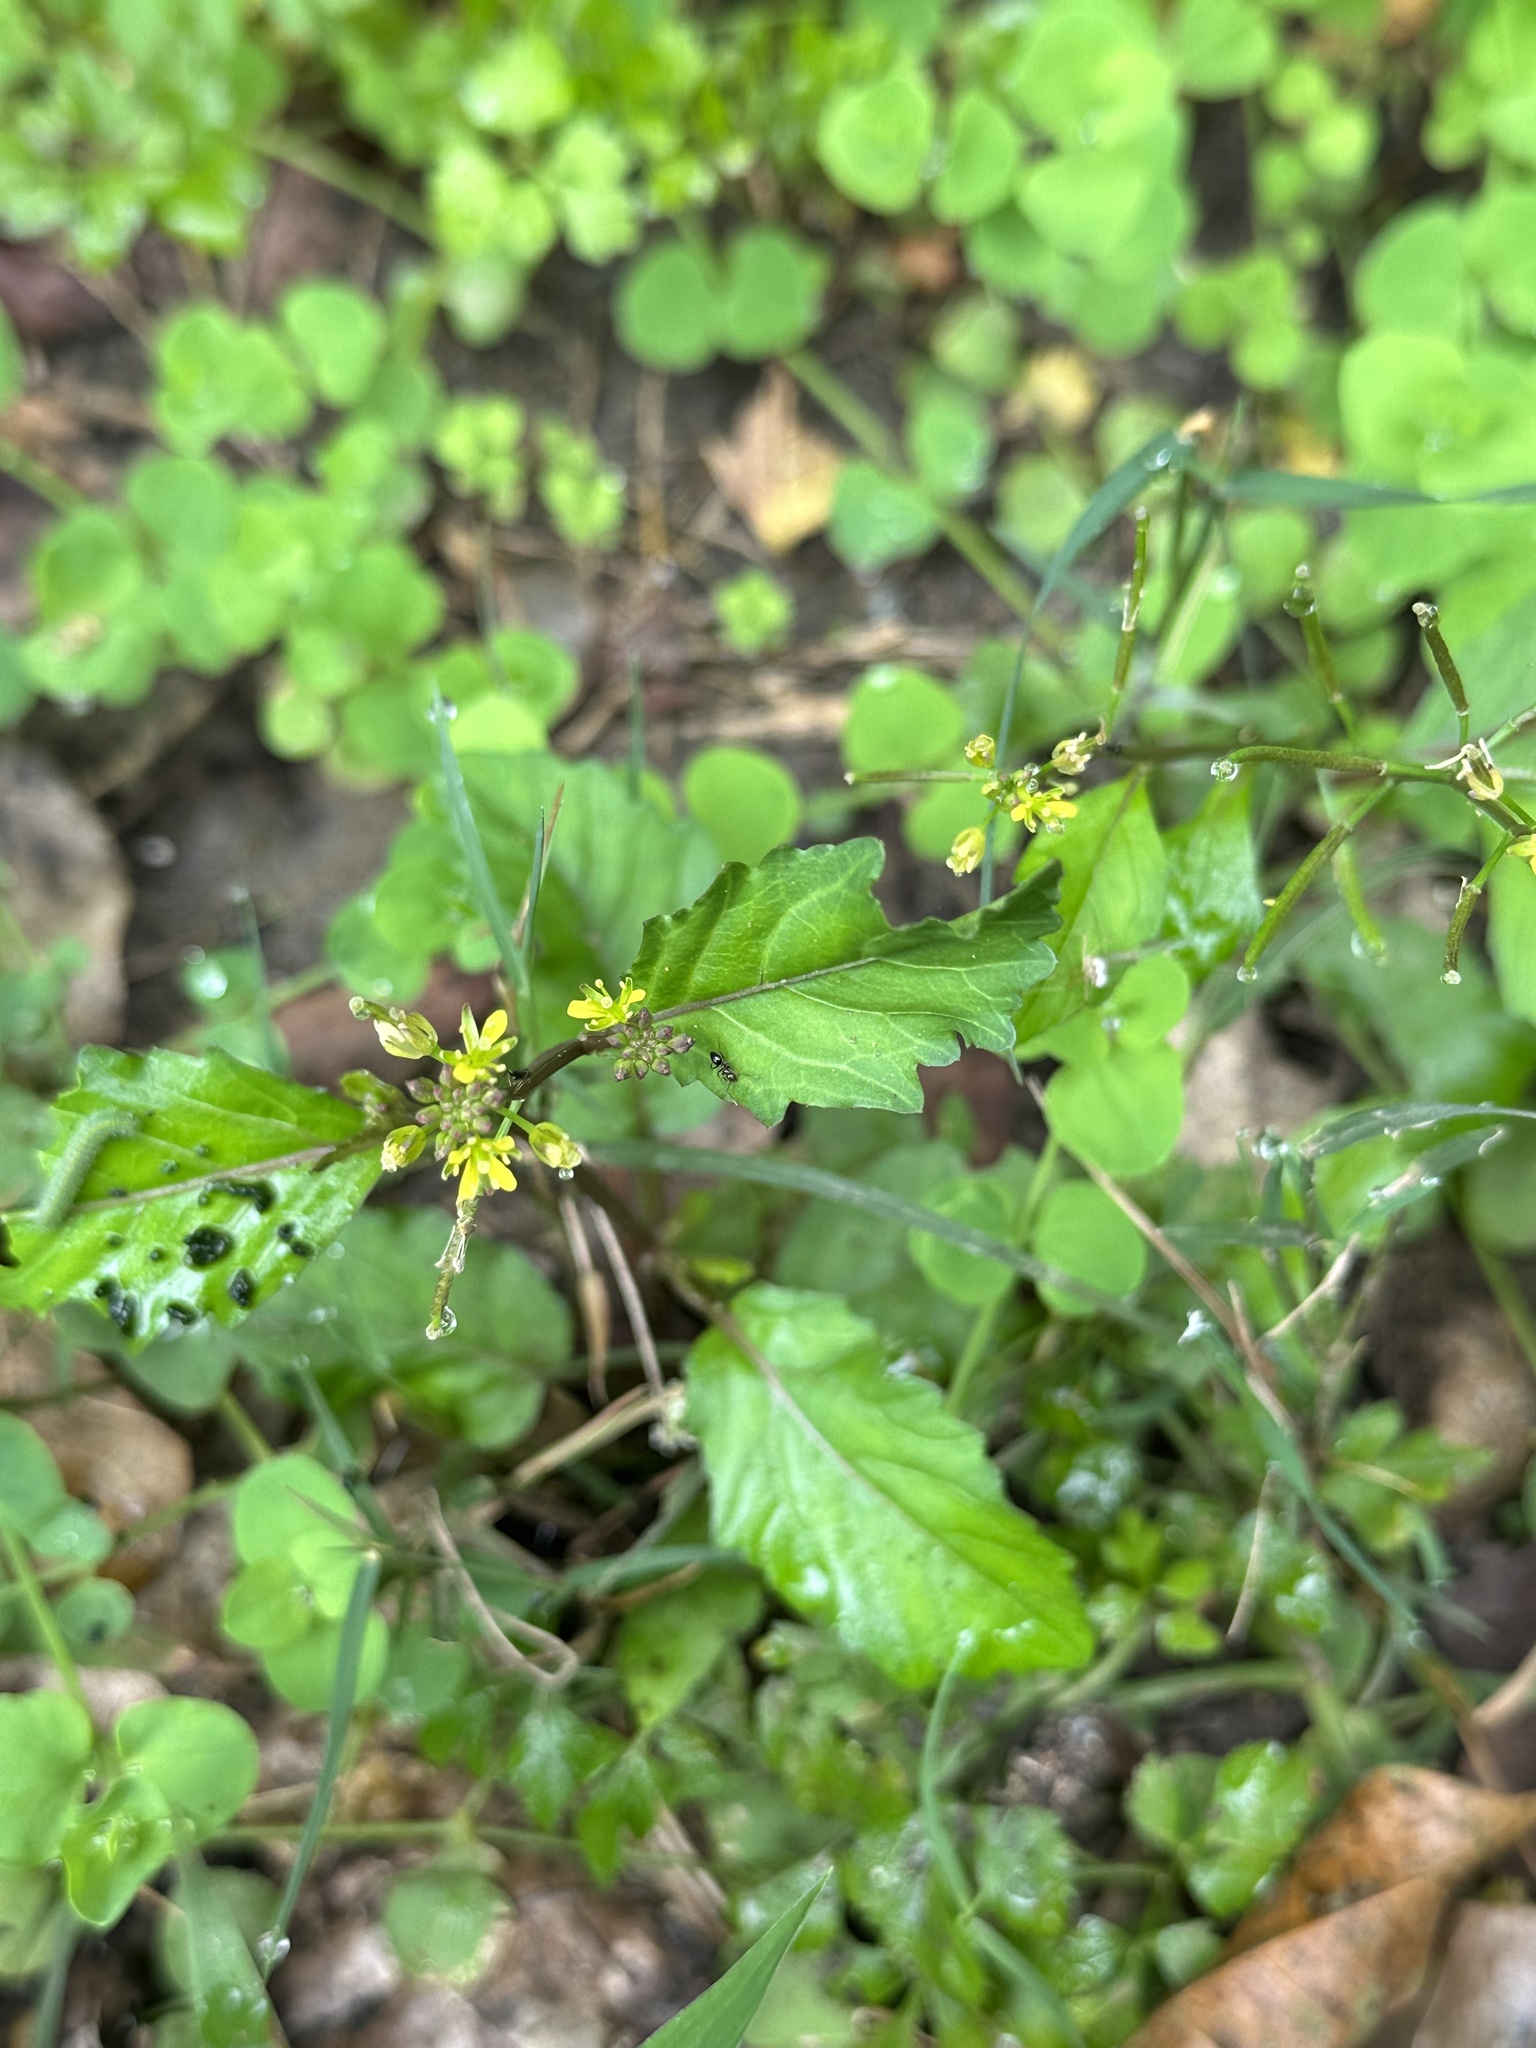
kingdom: Plantae
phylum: Tracheophyta
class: Magnoliopsida
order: Brassicales
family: Brassicaceae
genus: Rorippa
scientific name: Rorippa indica
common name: Variableleaf yellowcress
